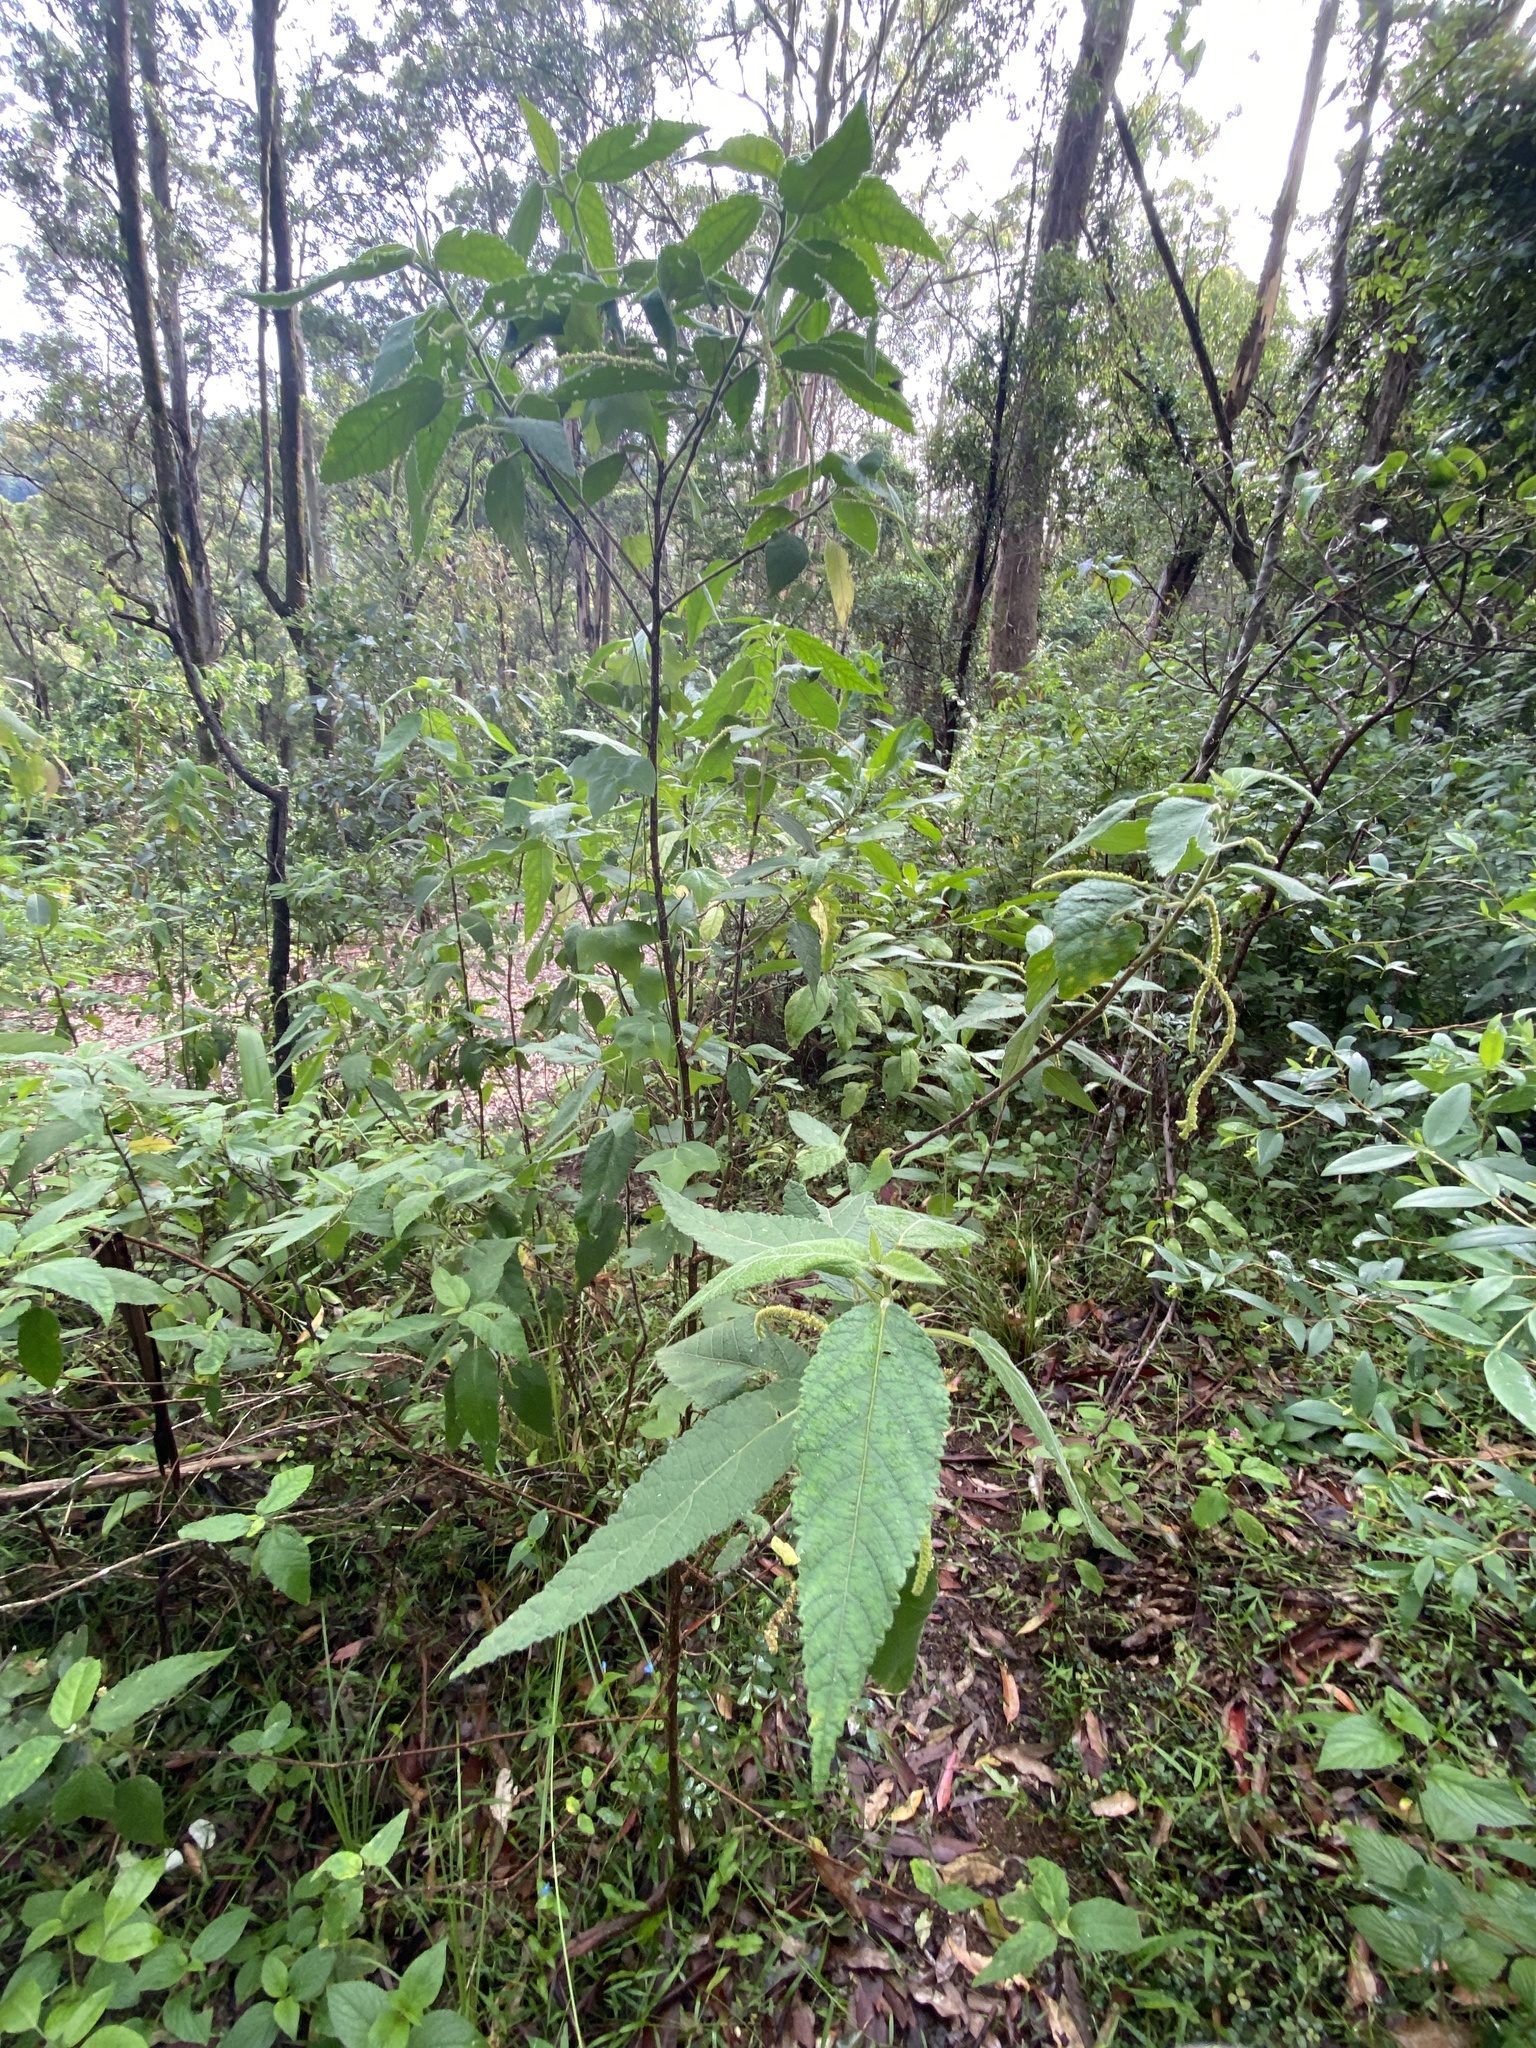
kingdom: Plantae
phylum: Tracheophyta
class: Magnoliopsida
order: Malpighiales
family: Euphorbiaceae
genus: Acalypha
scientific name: Acalypha nemorum
